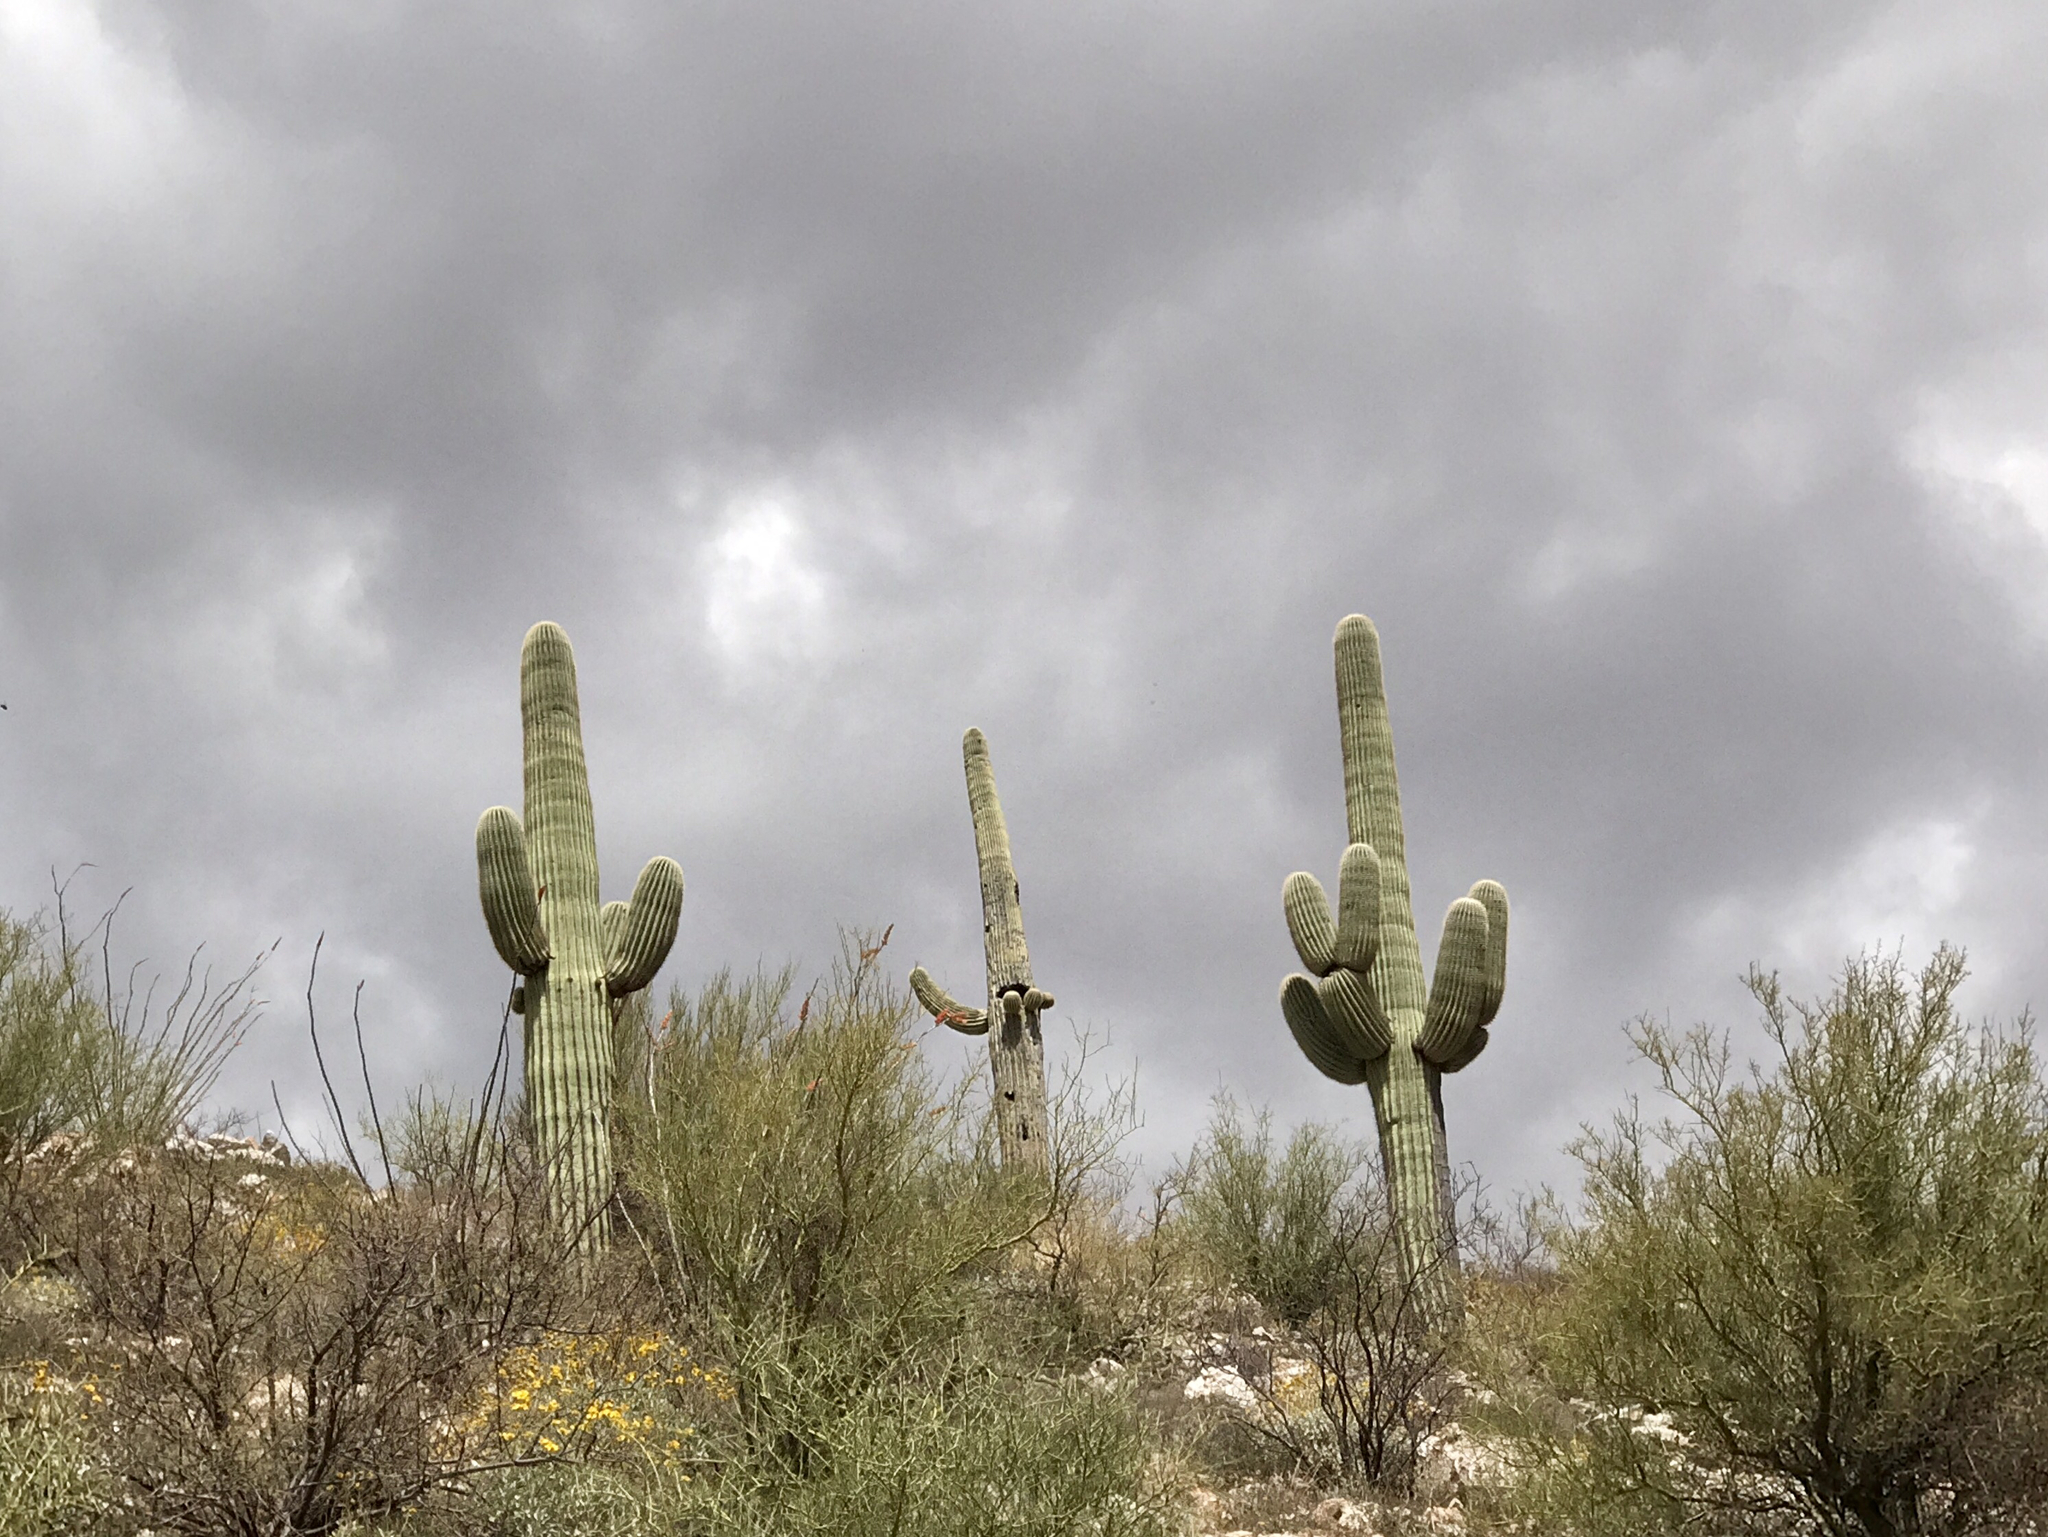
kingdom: Plantae
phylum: Tracheophyta
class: Magnoliopsida
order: Caryophyllales
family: Cactaceae
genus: Carnegiea
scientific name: Carnegiea gigantea
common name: Saguaro
